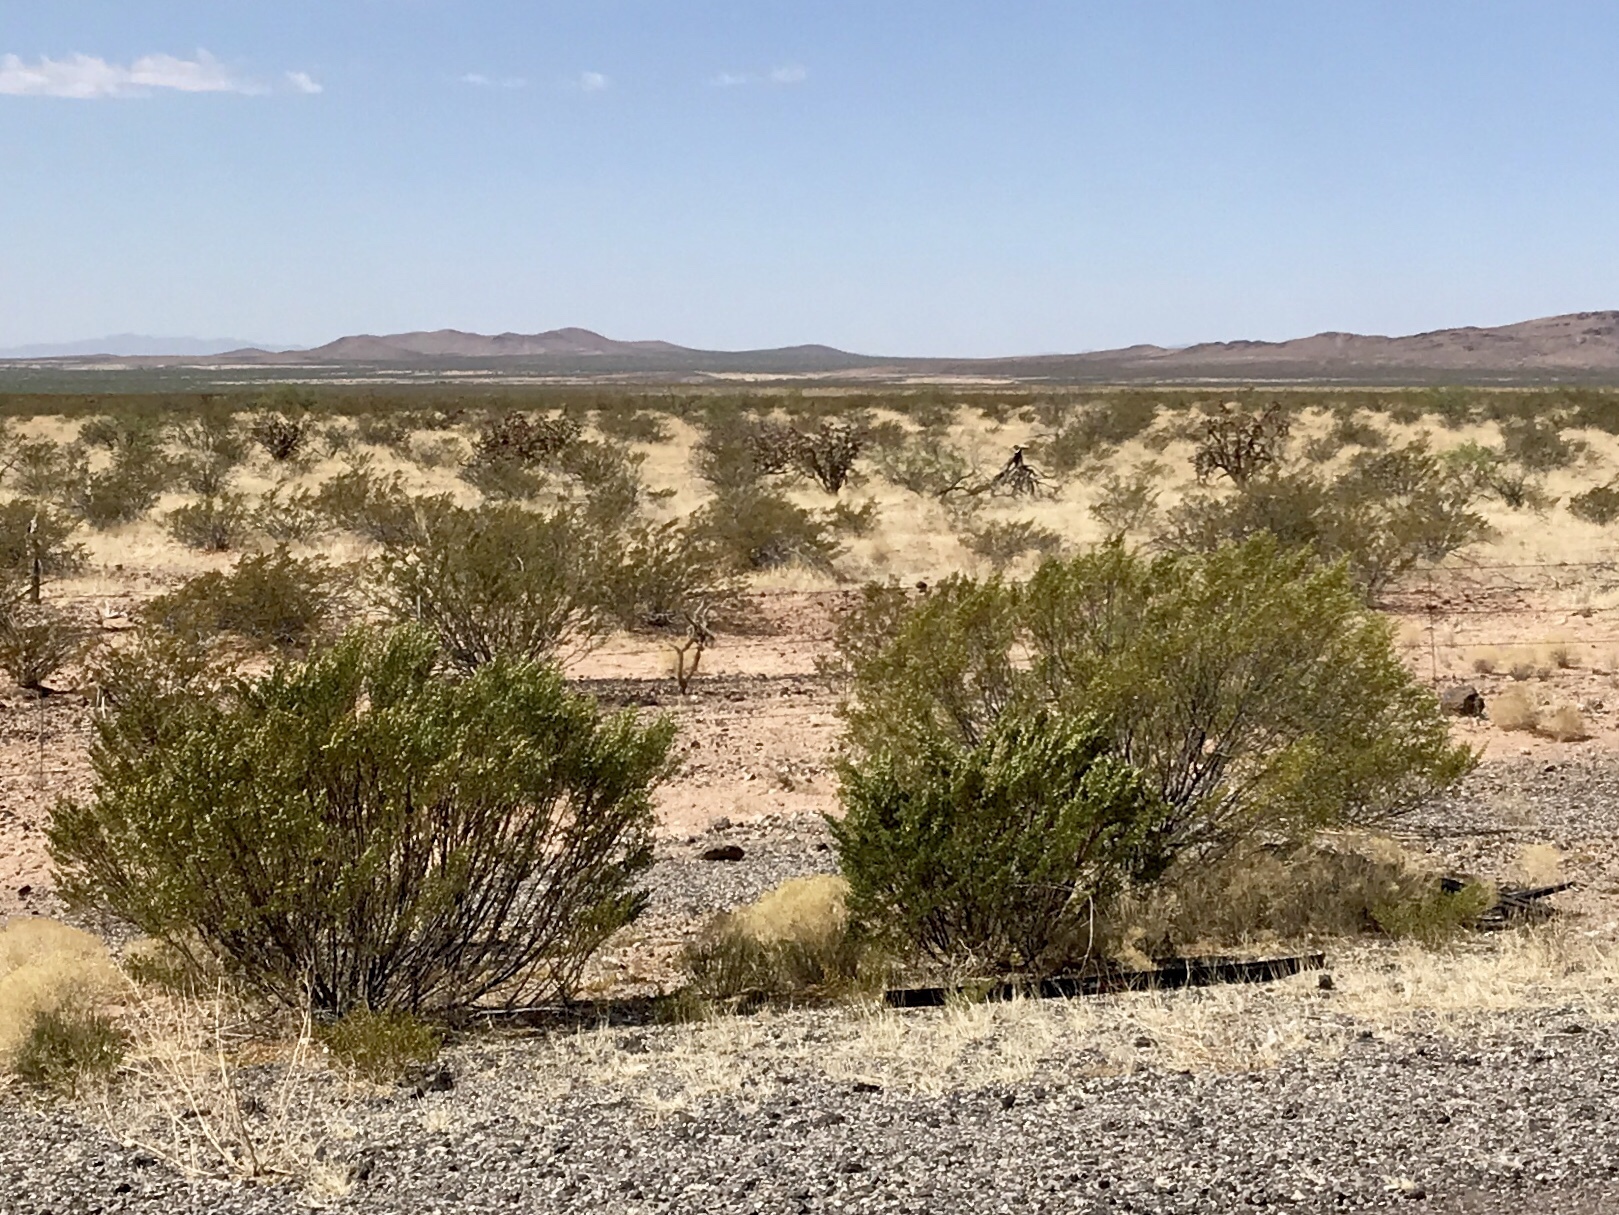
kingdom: Plantae
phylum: Tracheophyta
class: Magnoliopsida
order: Zygophyllales
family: Zygophyllaceae
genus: Larrea
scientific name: Larrea tridentata
